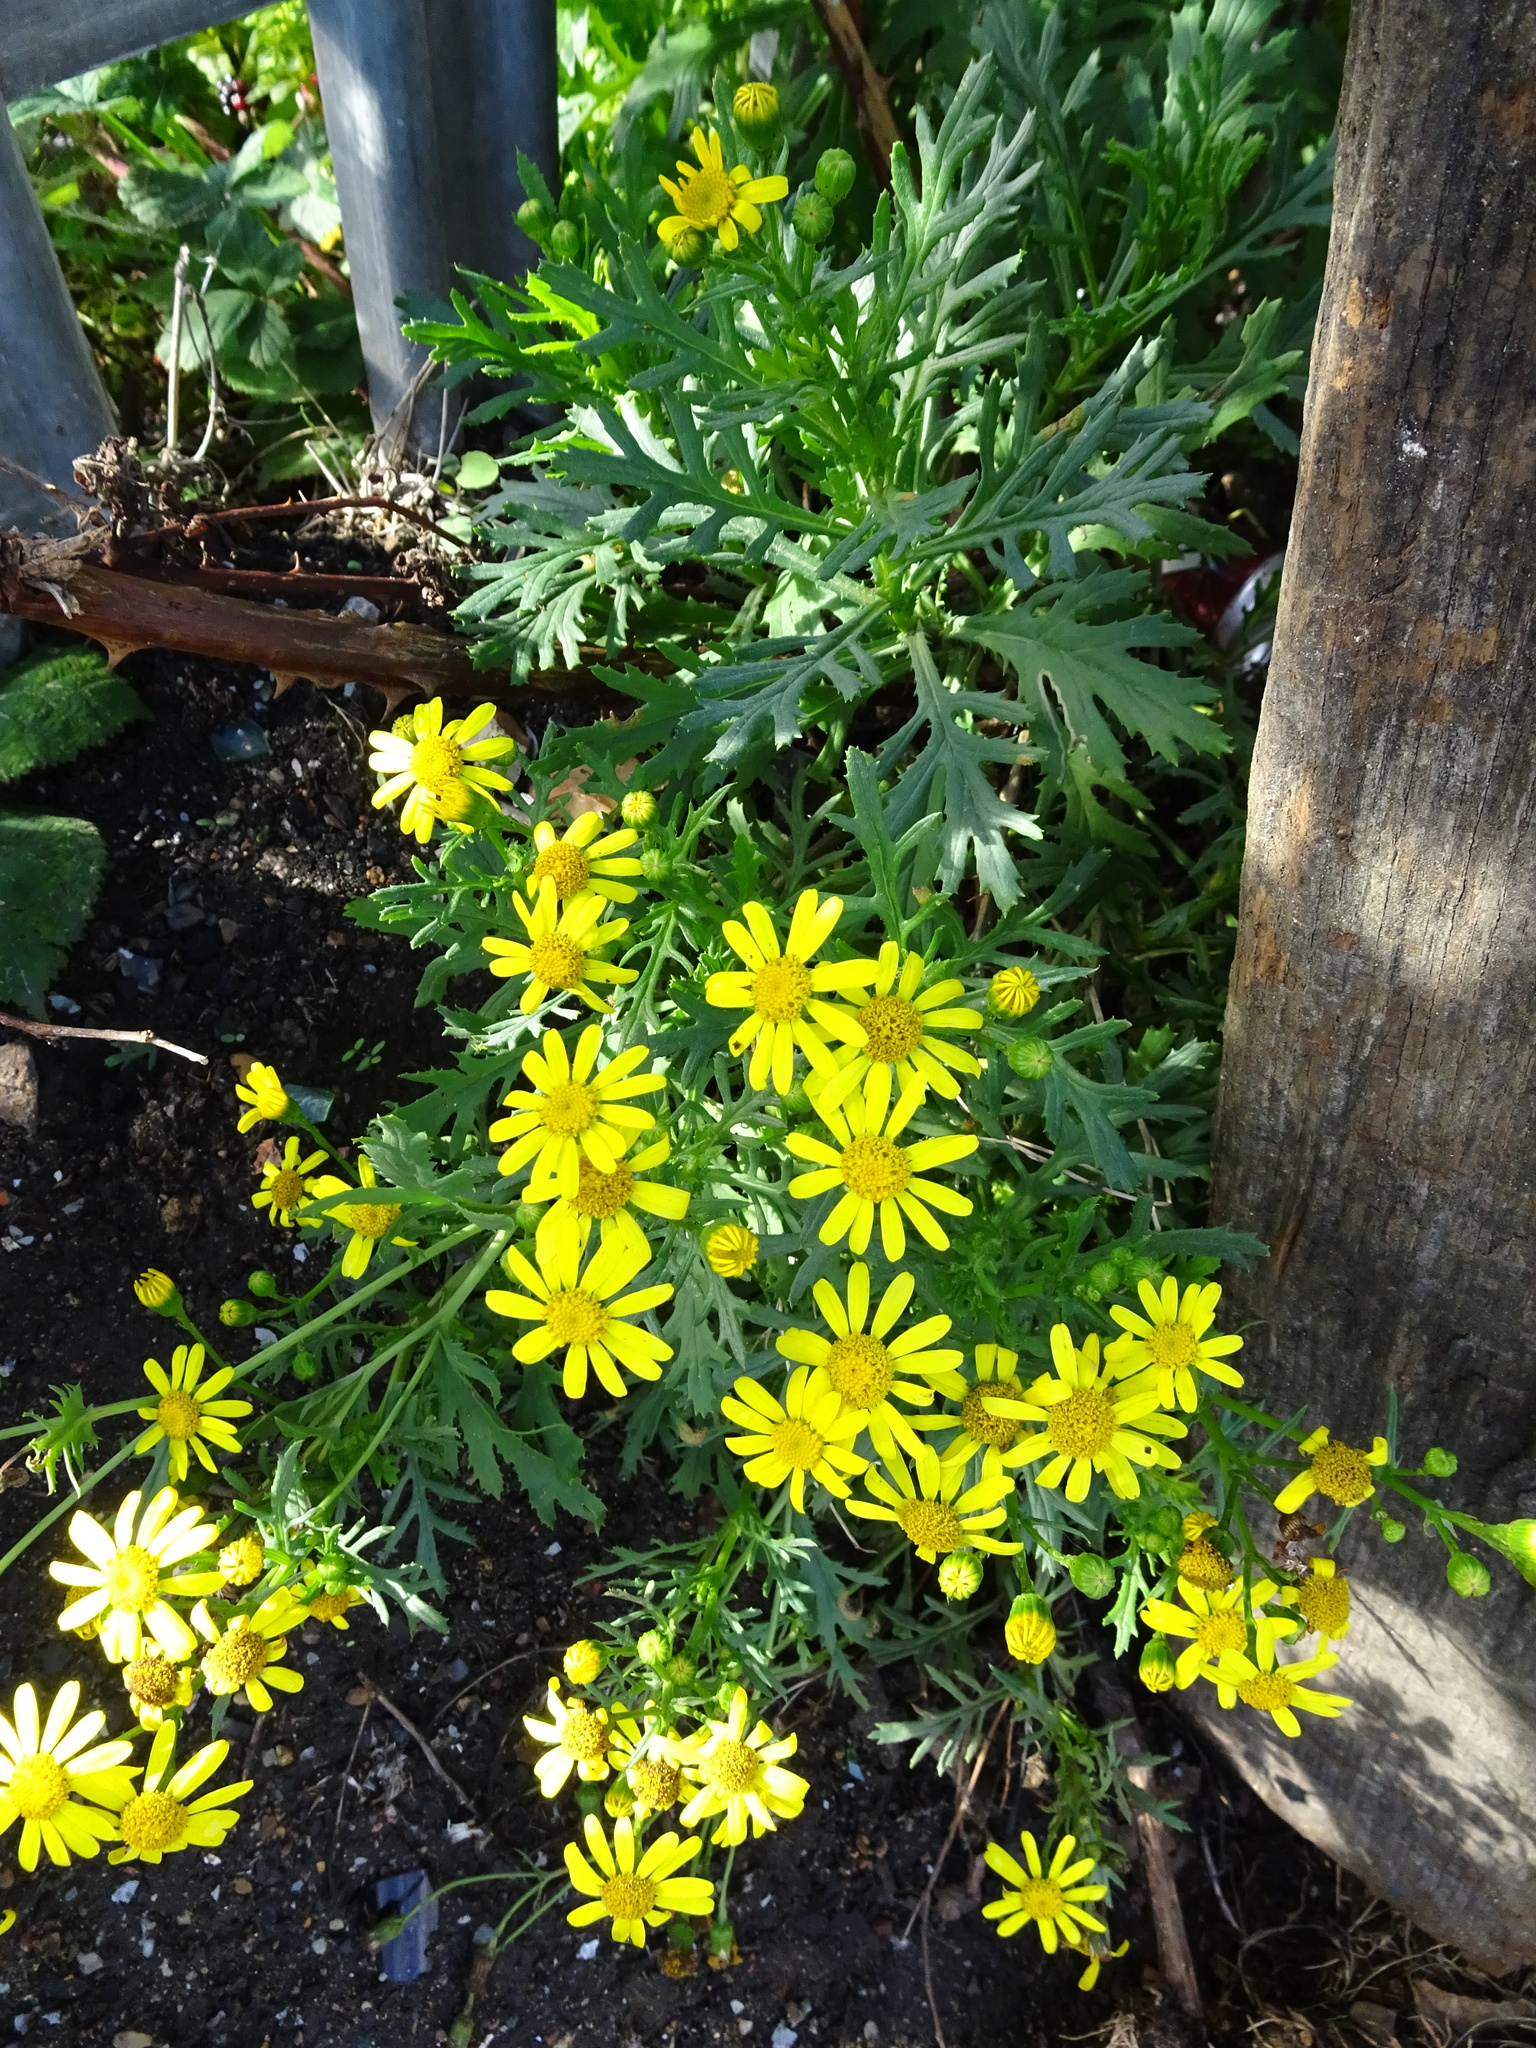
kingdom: Plantae
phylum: Tracheophyta
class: Magnoliopsida
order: Asterales
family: Asteraceae
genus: Senecio
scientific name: Senecio squalidus
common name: Oxford ragwort
